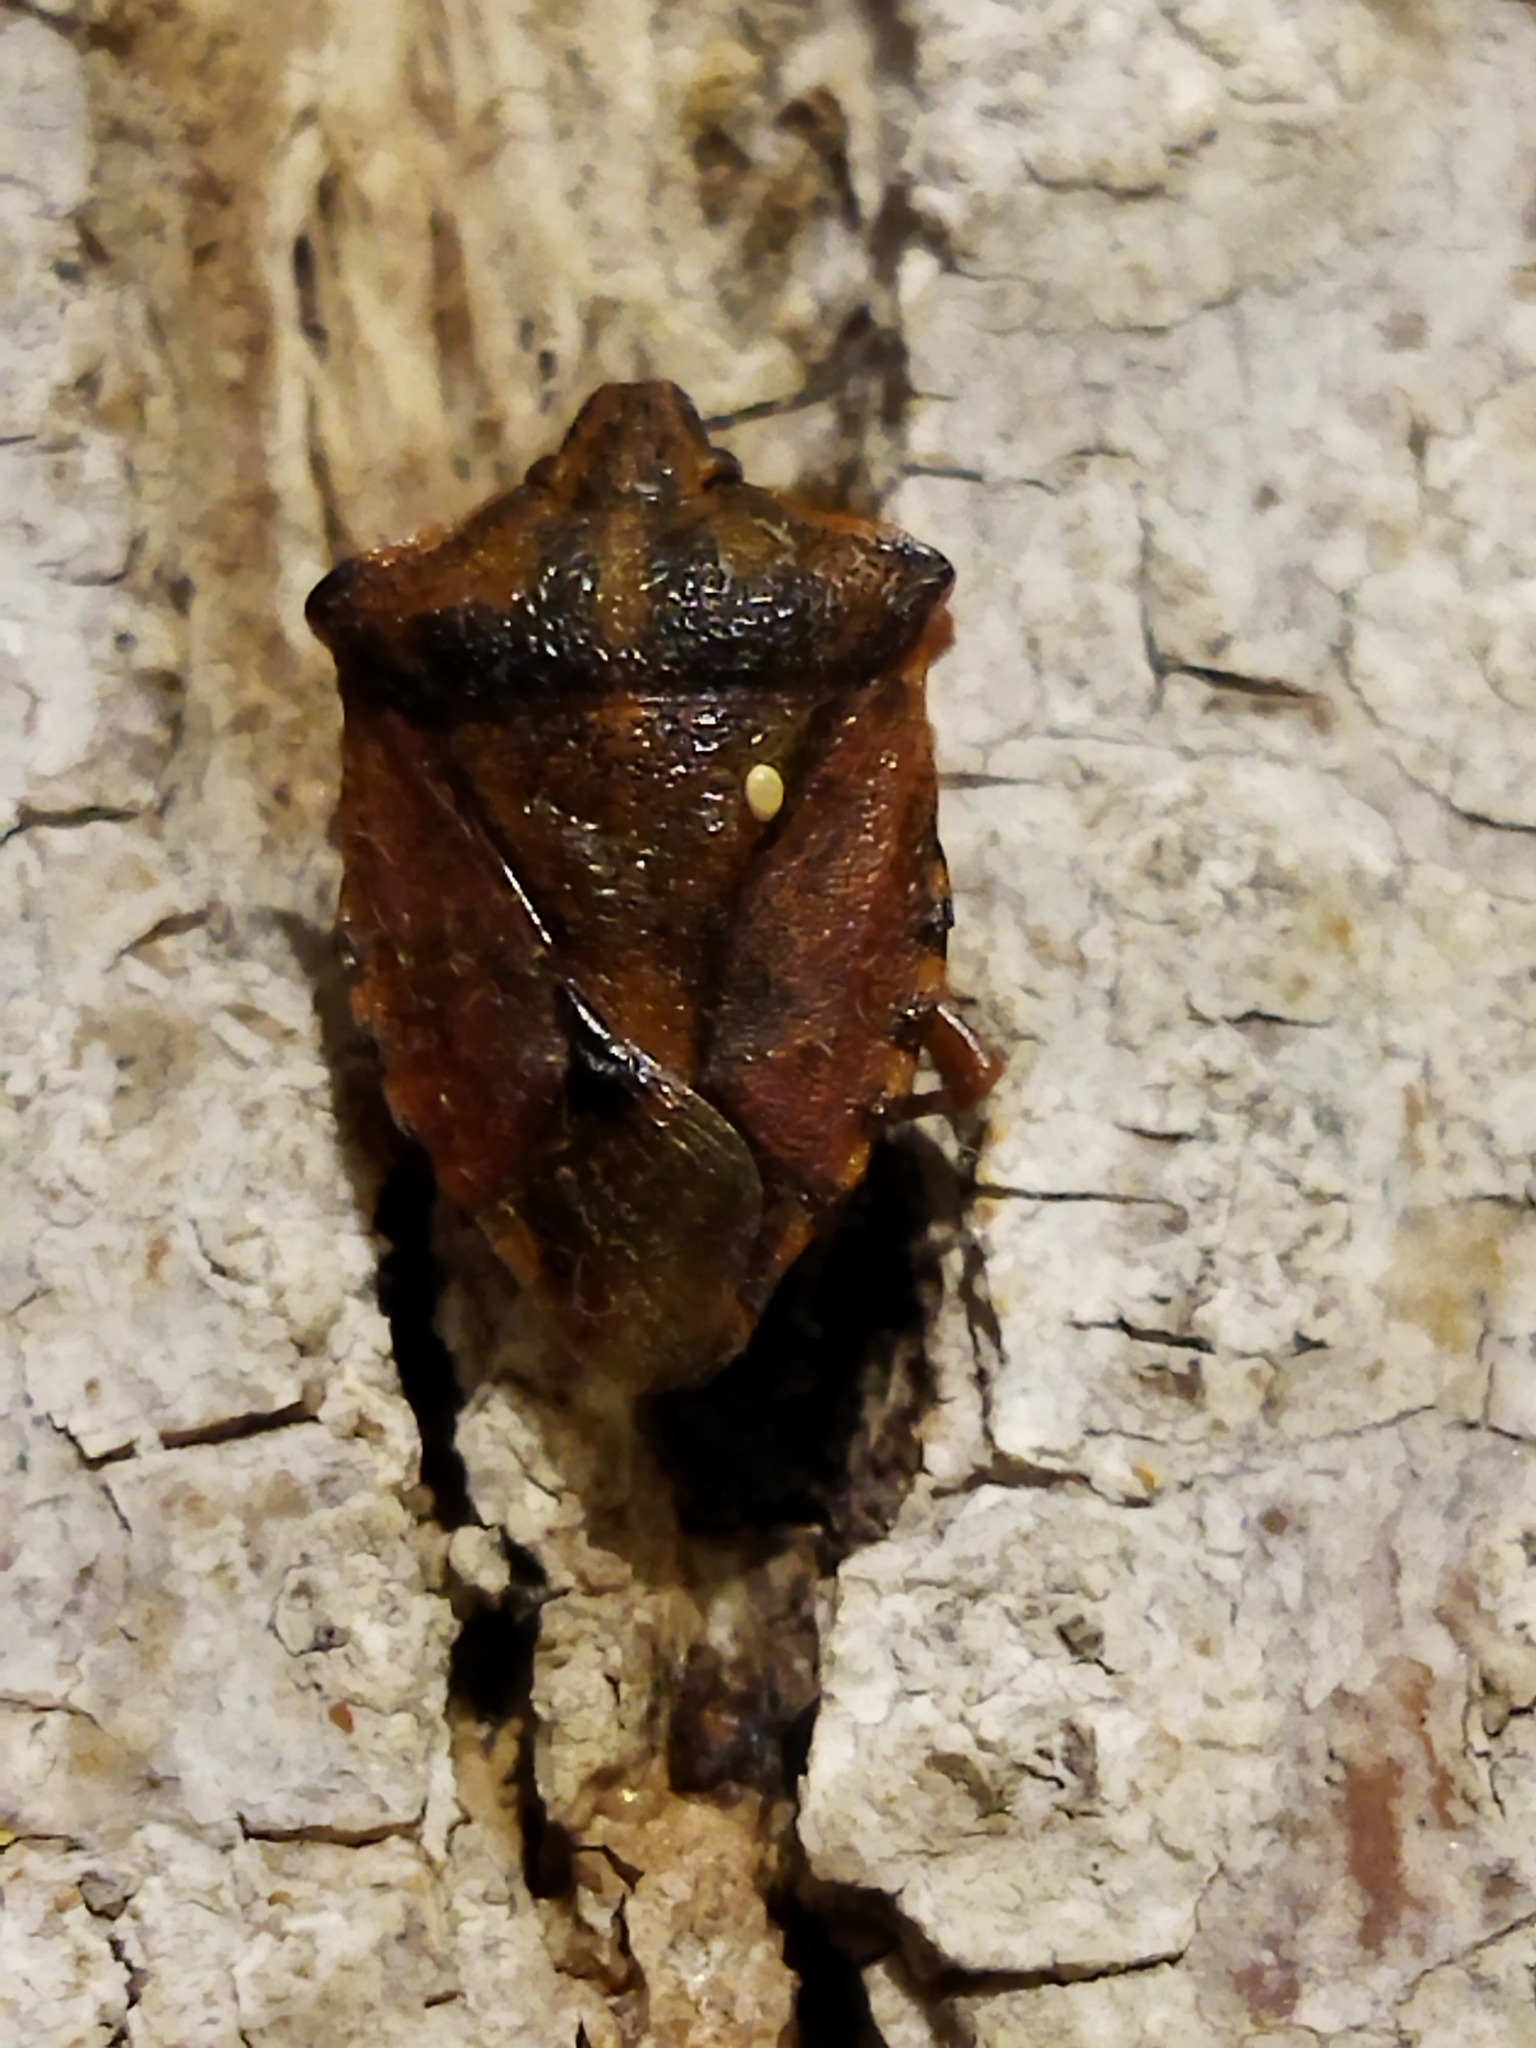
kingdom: Animalia
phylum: Arthropoda
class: Insecta
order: Hemiptera
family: Pentatomidae
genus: Carpocoris
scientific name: Carpocoris purpureipennis
